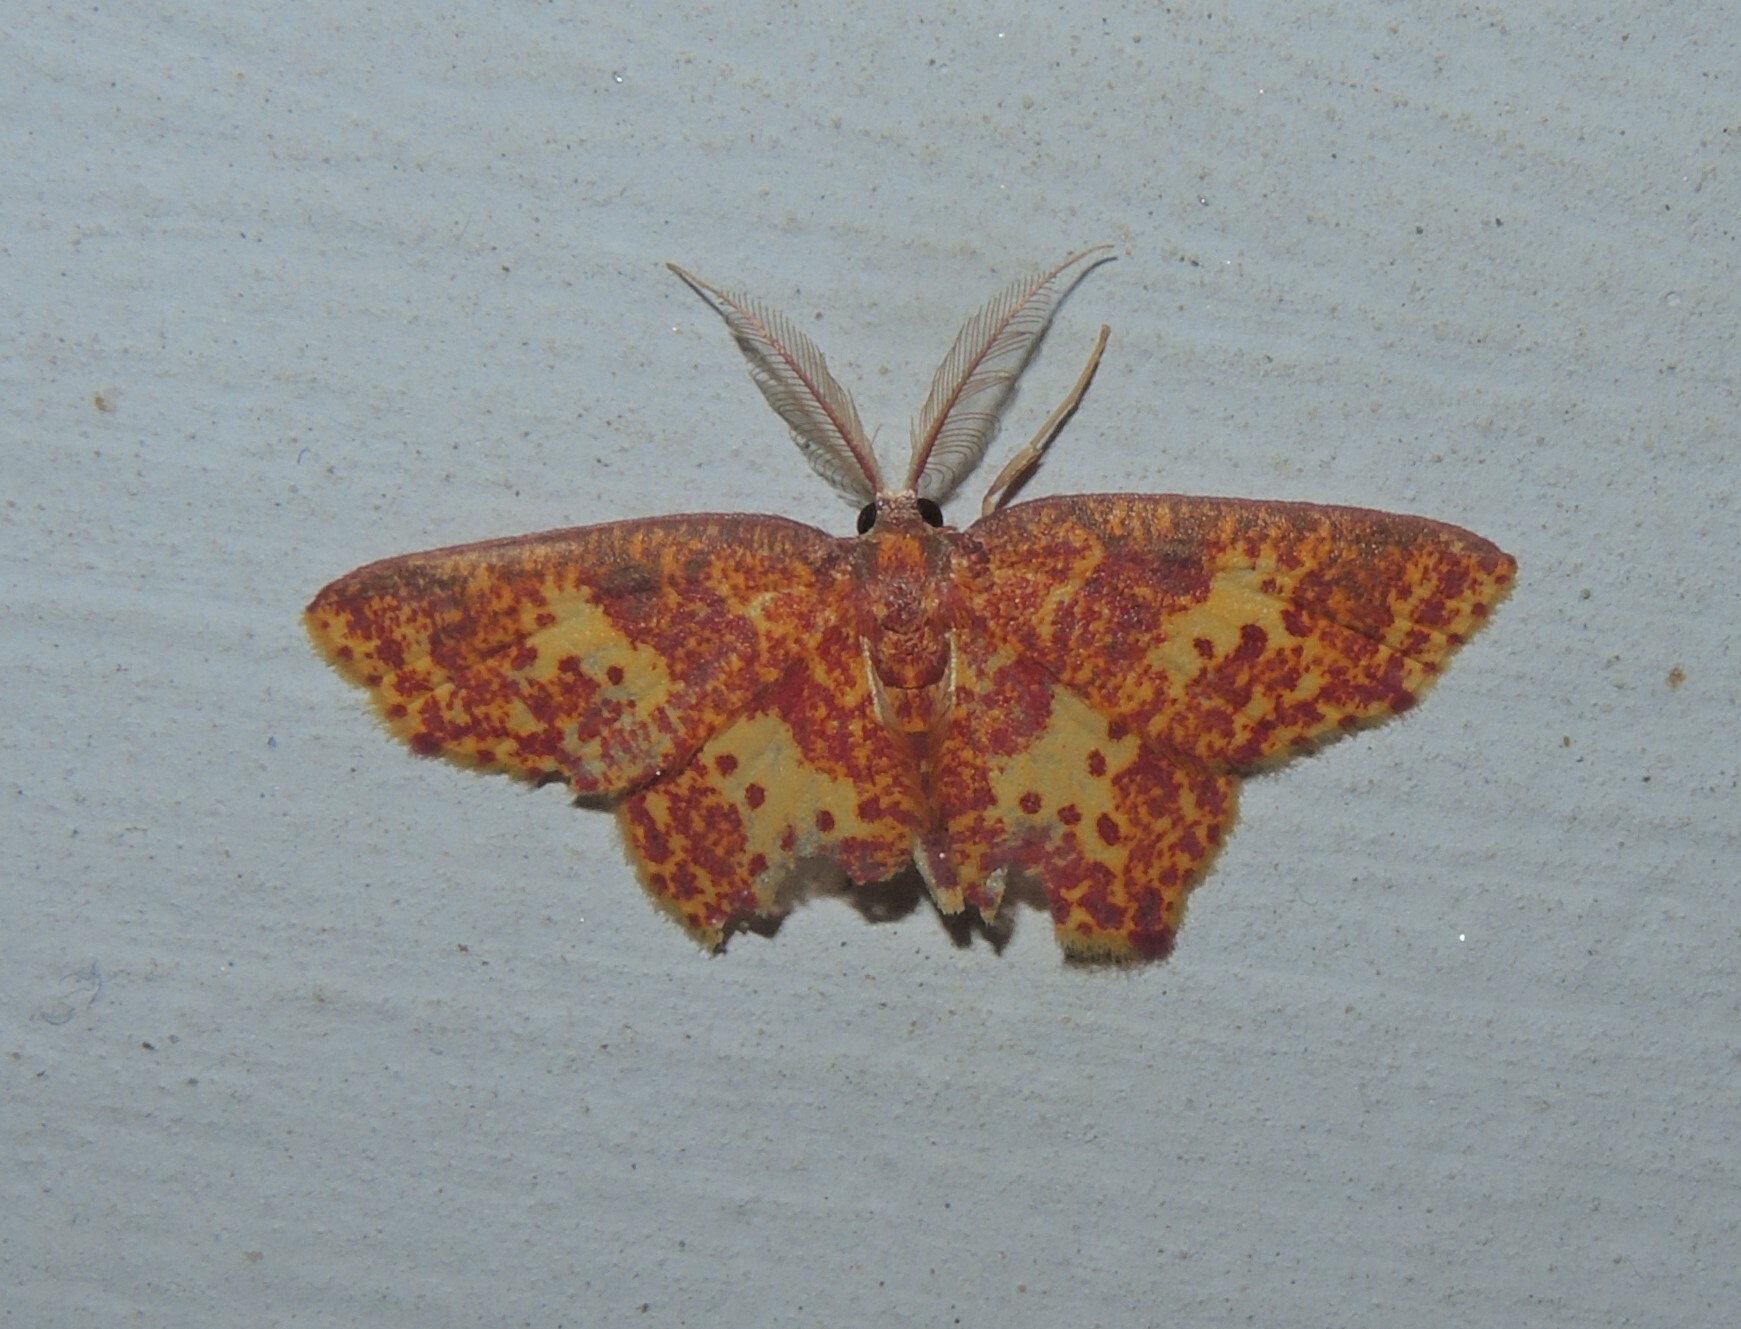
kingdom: Animalia
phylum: Arthropoda
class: Insecta
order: Lepidoptera
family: Geometridae
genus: Chrysocraspeda
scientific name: Chrysocraspeda faganaria
